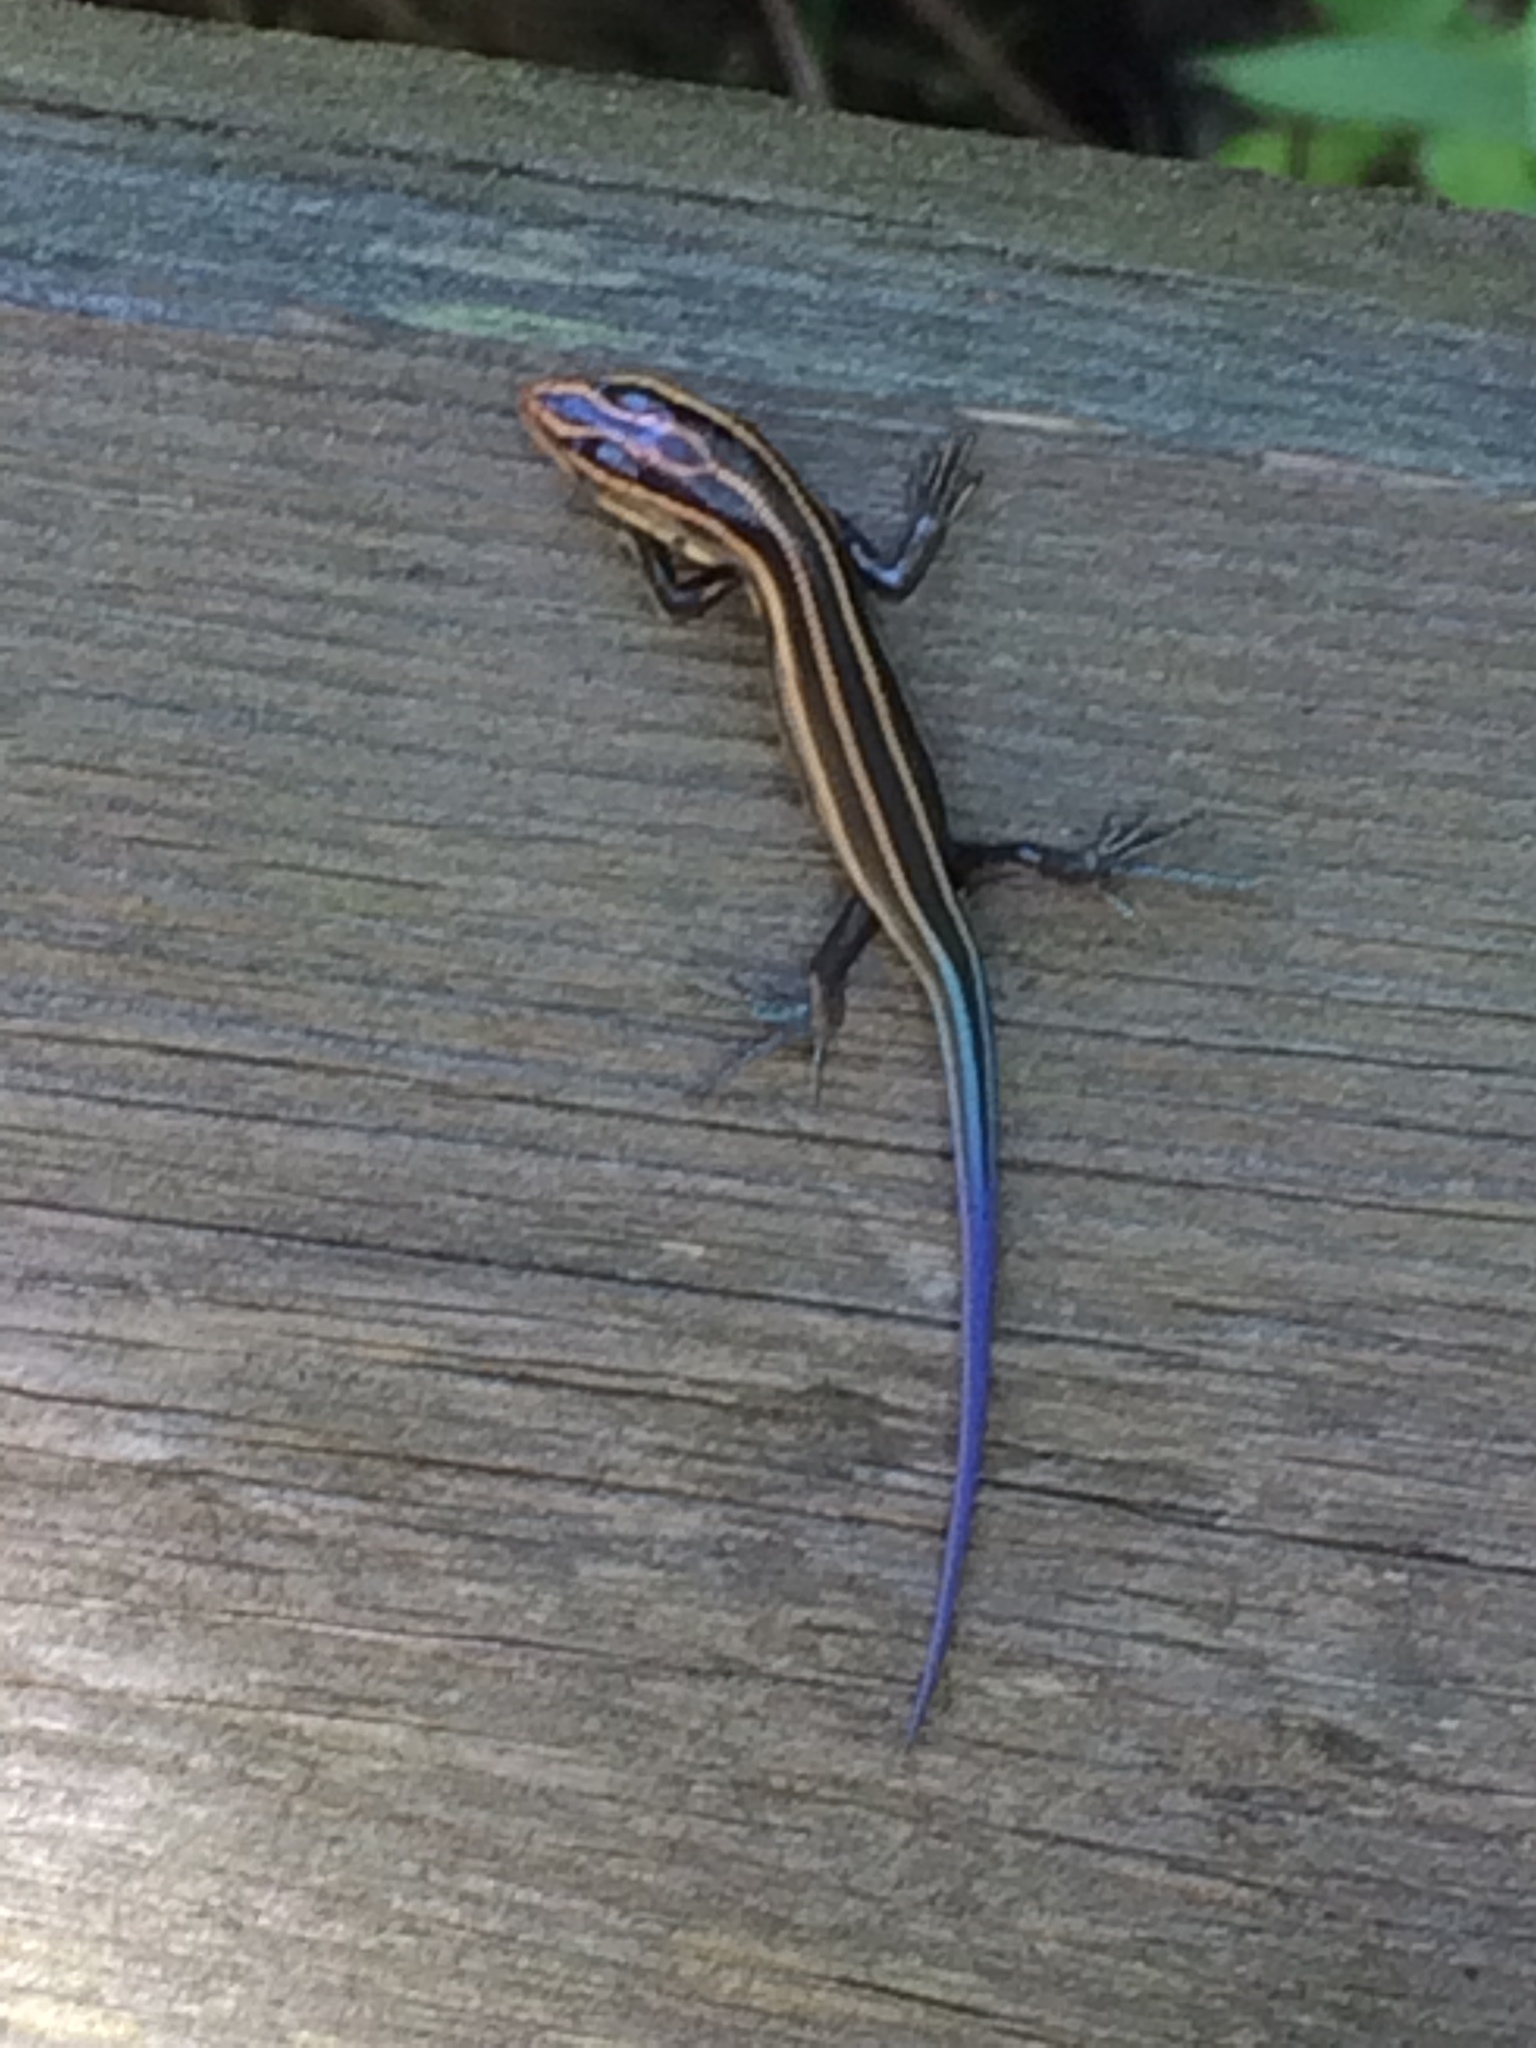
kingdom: Animalia
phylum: Chordata
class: Squamata
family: Scincidae
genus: Plestiodon
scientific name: Plestiodon fasciatus
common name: Five-lined skink
